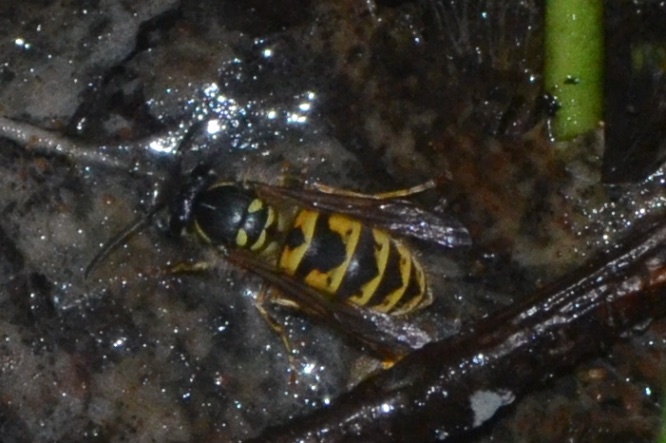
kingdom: Animalia
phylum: Arthropoda
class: Insecta
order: Hymenoptera
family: Vespidae
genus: Vespula
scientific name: Vespula vulgaris
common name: Common wasp
